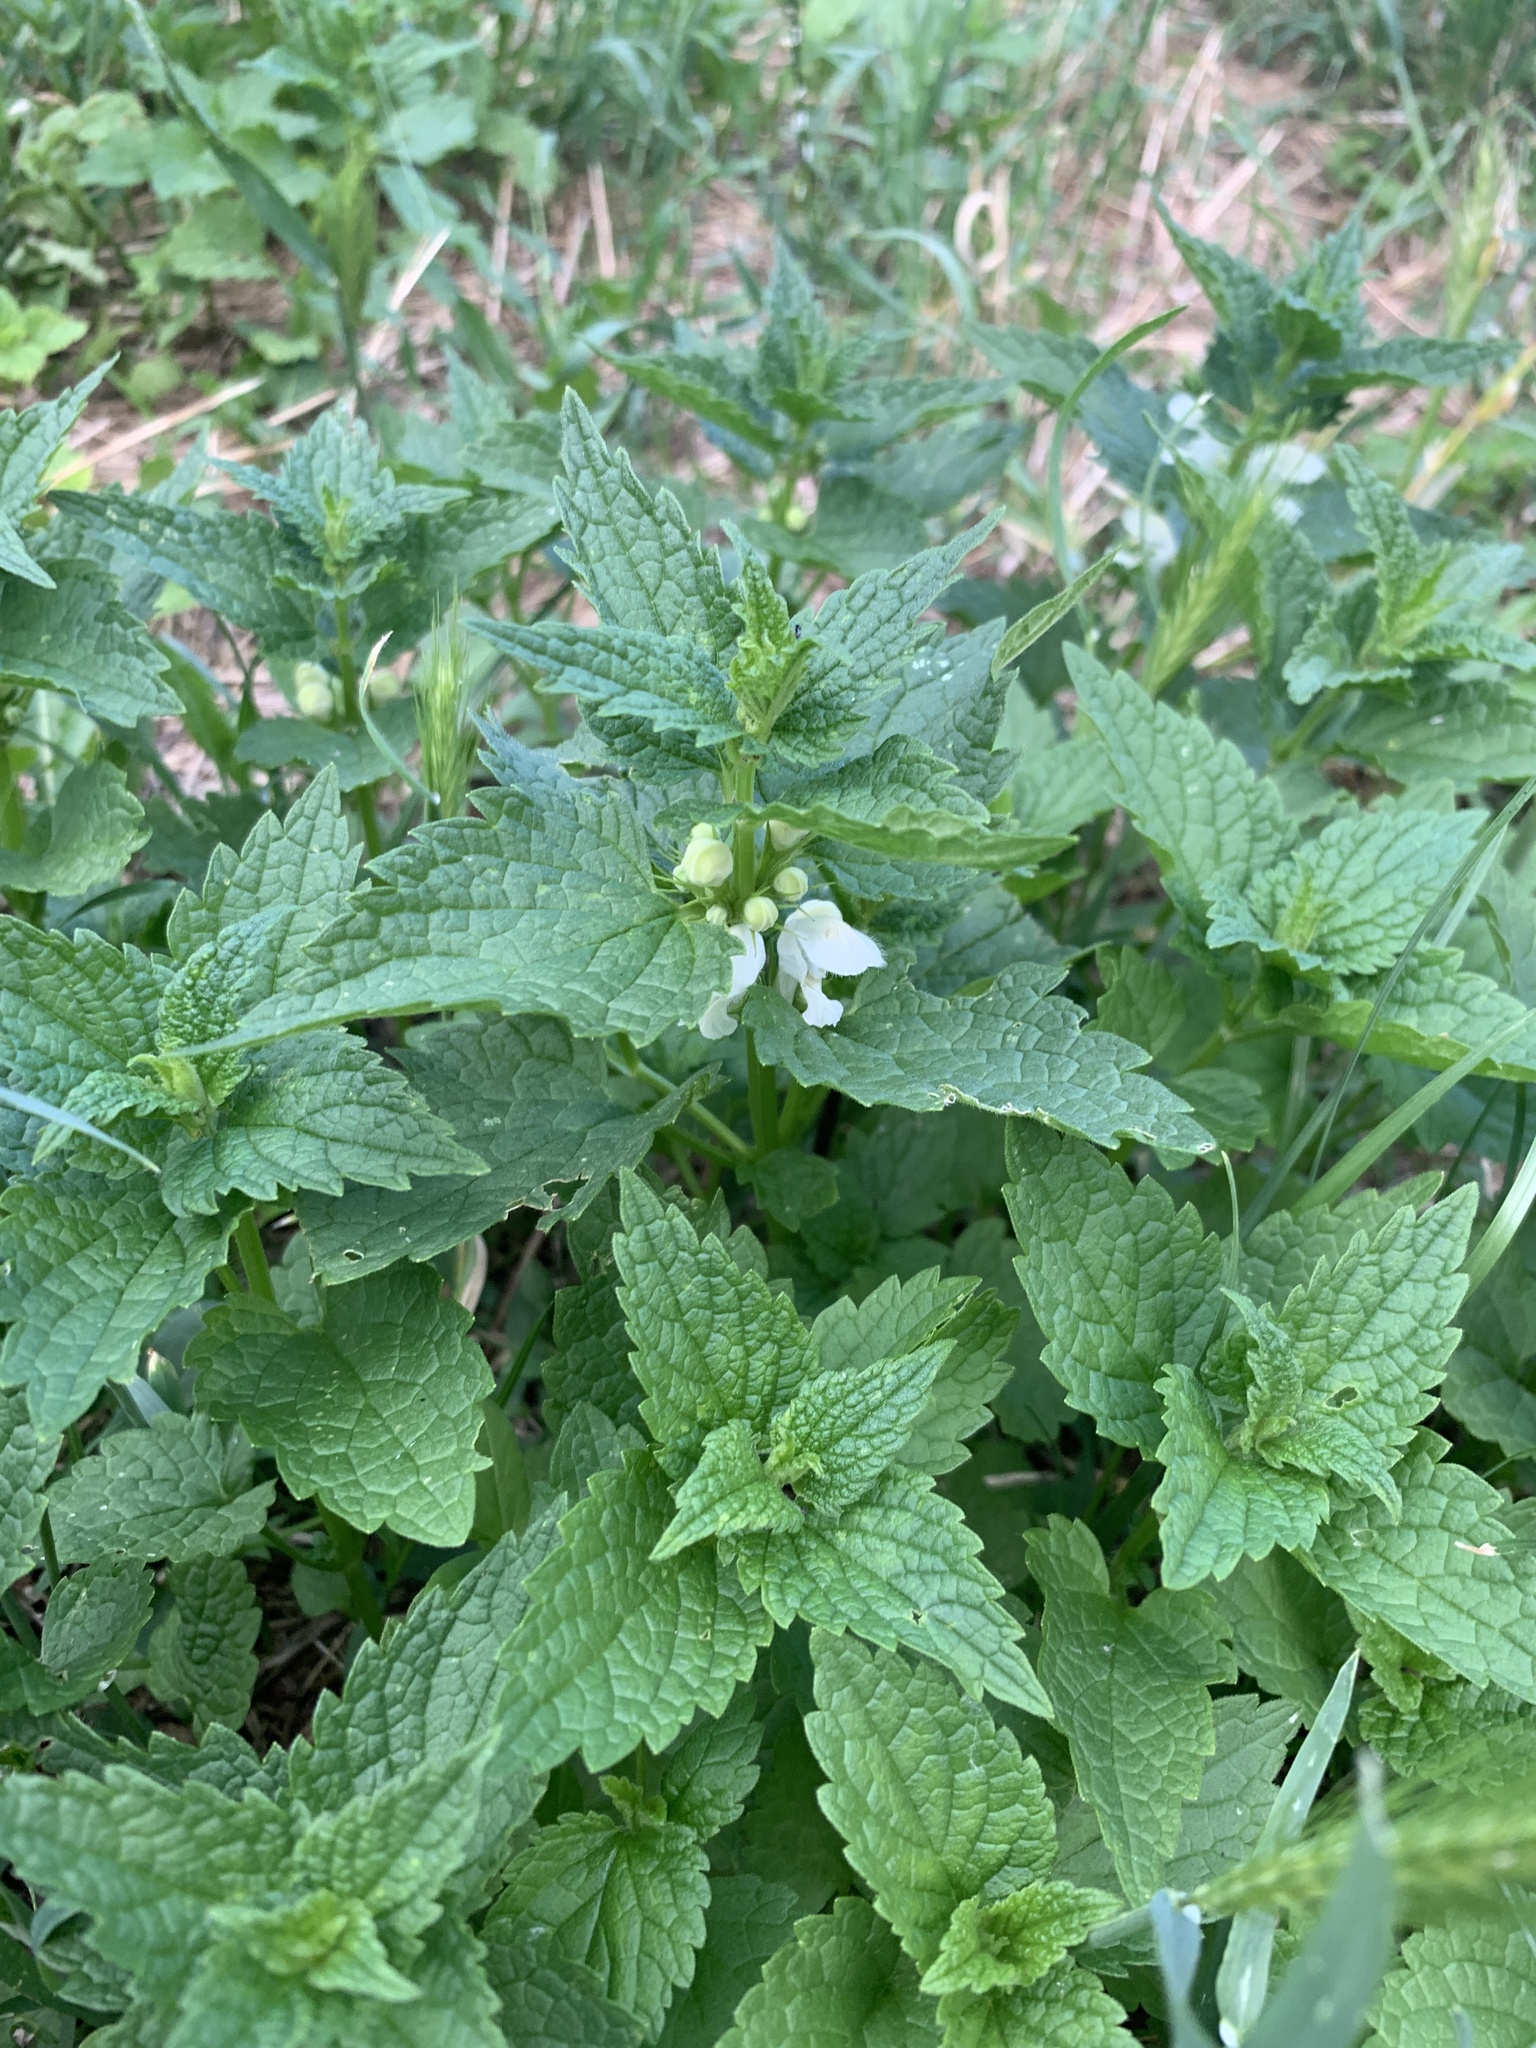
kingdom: Plantae
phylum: Tracheophyta
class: Magnoliopsida
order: Lamiales
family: Lamiaceae
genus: Lamium
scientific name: Lamium album
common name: White dead-nettle
